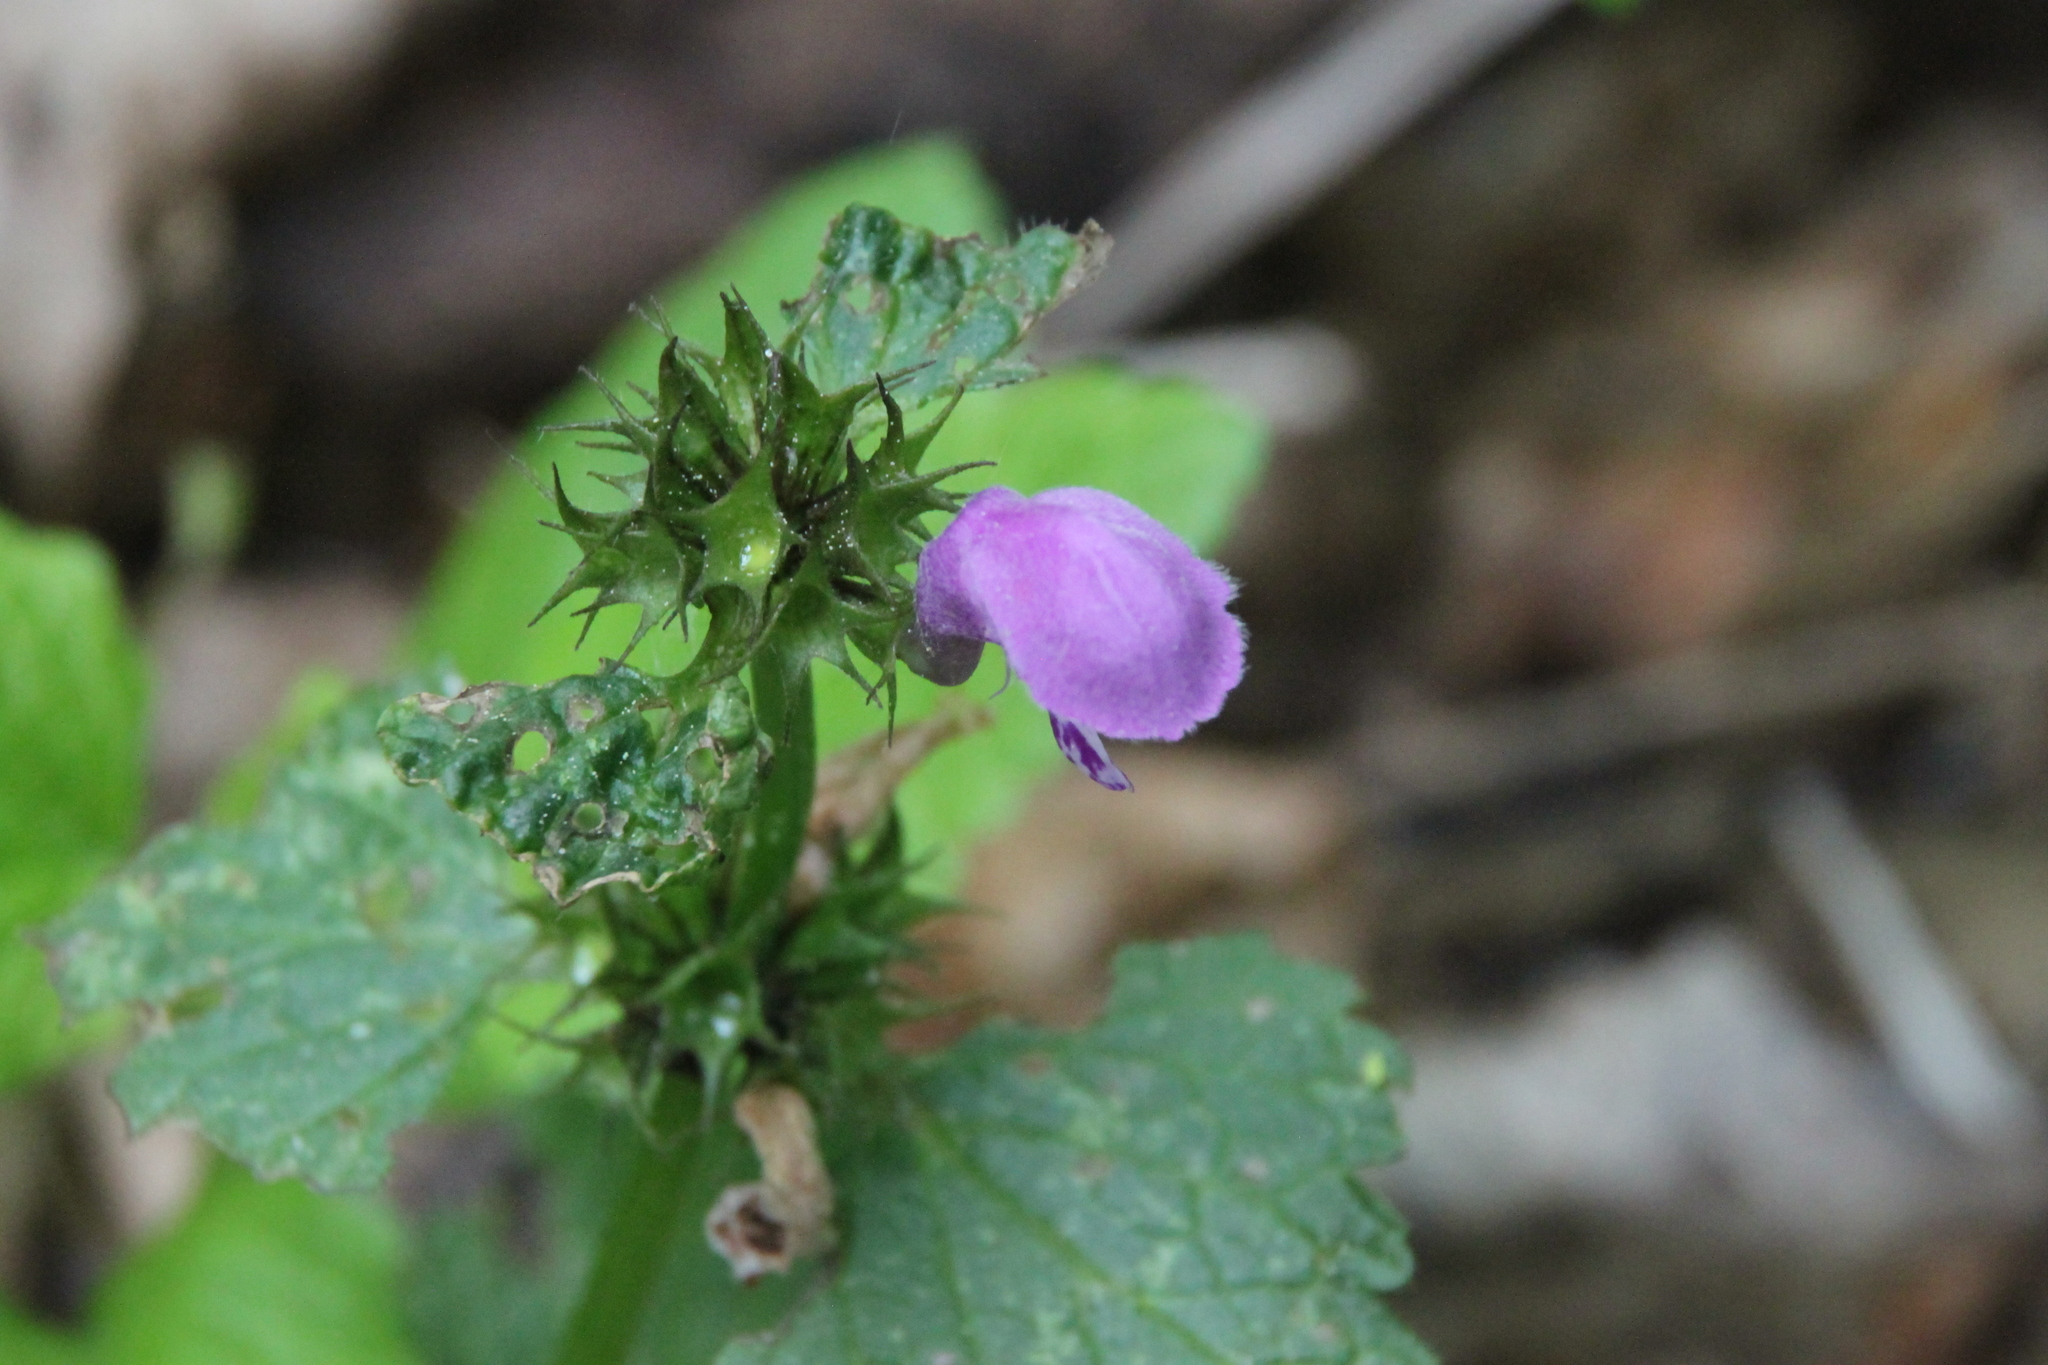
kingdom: Plantae
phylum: Tracheophyta
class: Magnoliopsida
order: Lamiales
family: Lamiaceae
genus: Lamium
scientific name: Lamium maculatum
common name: Spotted dead-nettle
